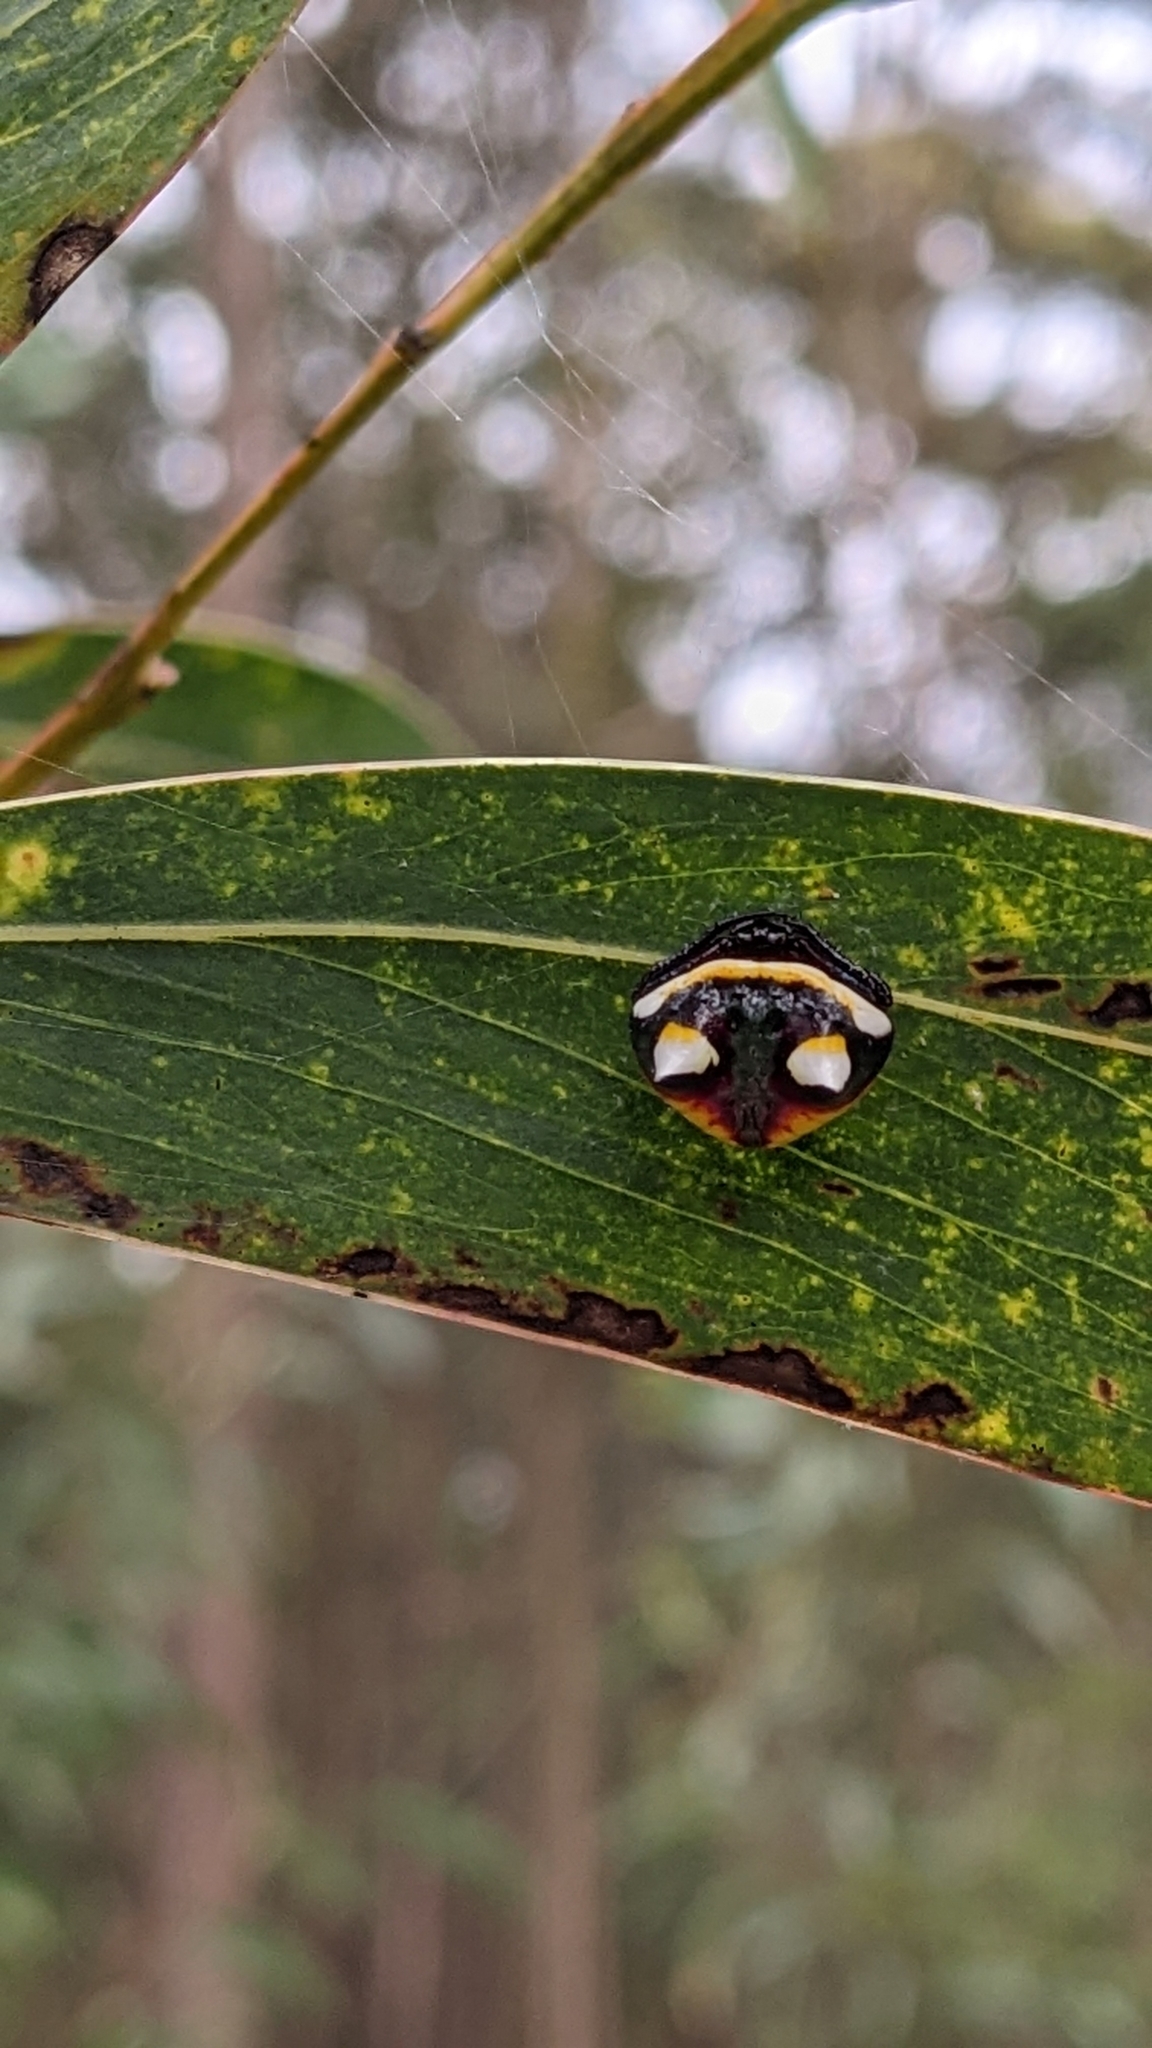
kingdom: Animalia
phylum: Arthropoda
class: Arachnida
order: Araneae
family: Araneidae
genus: Poecilopachys
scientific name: Poecilopachys australasia
